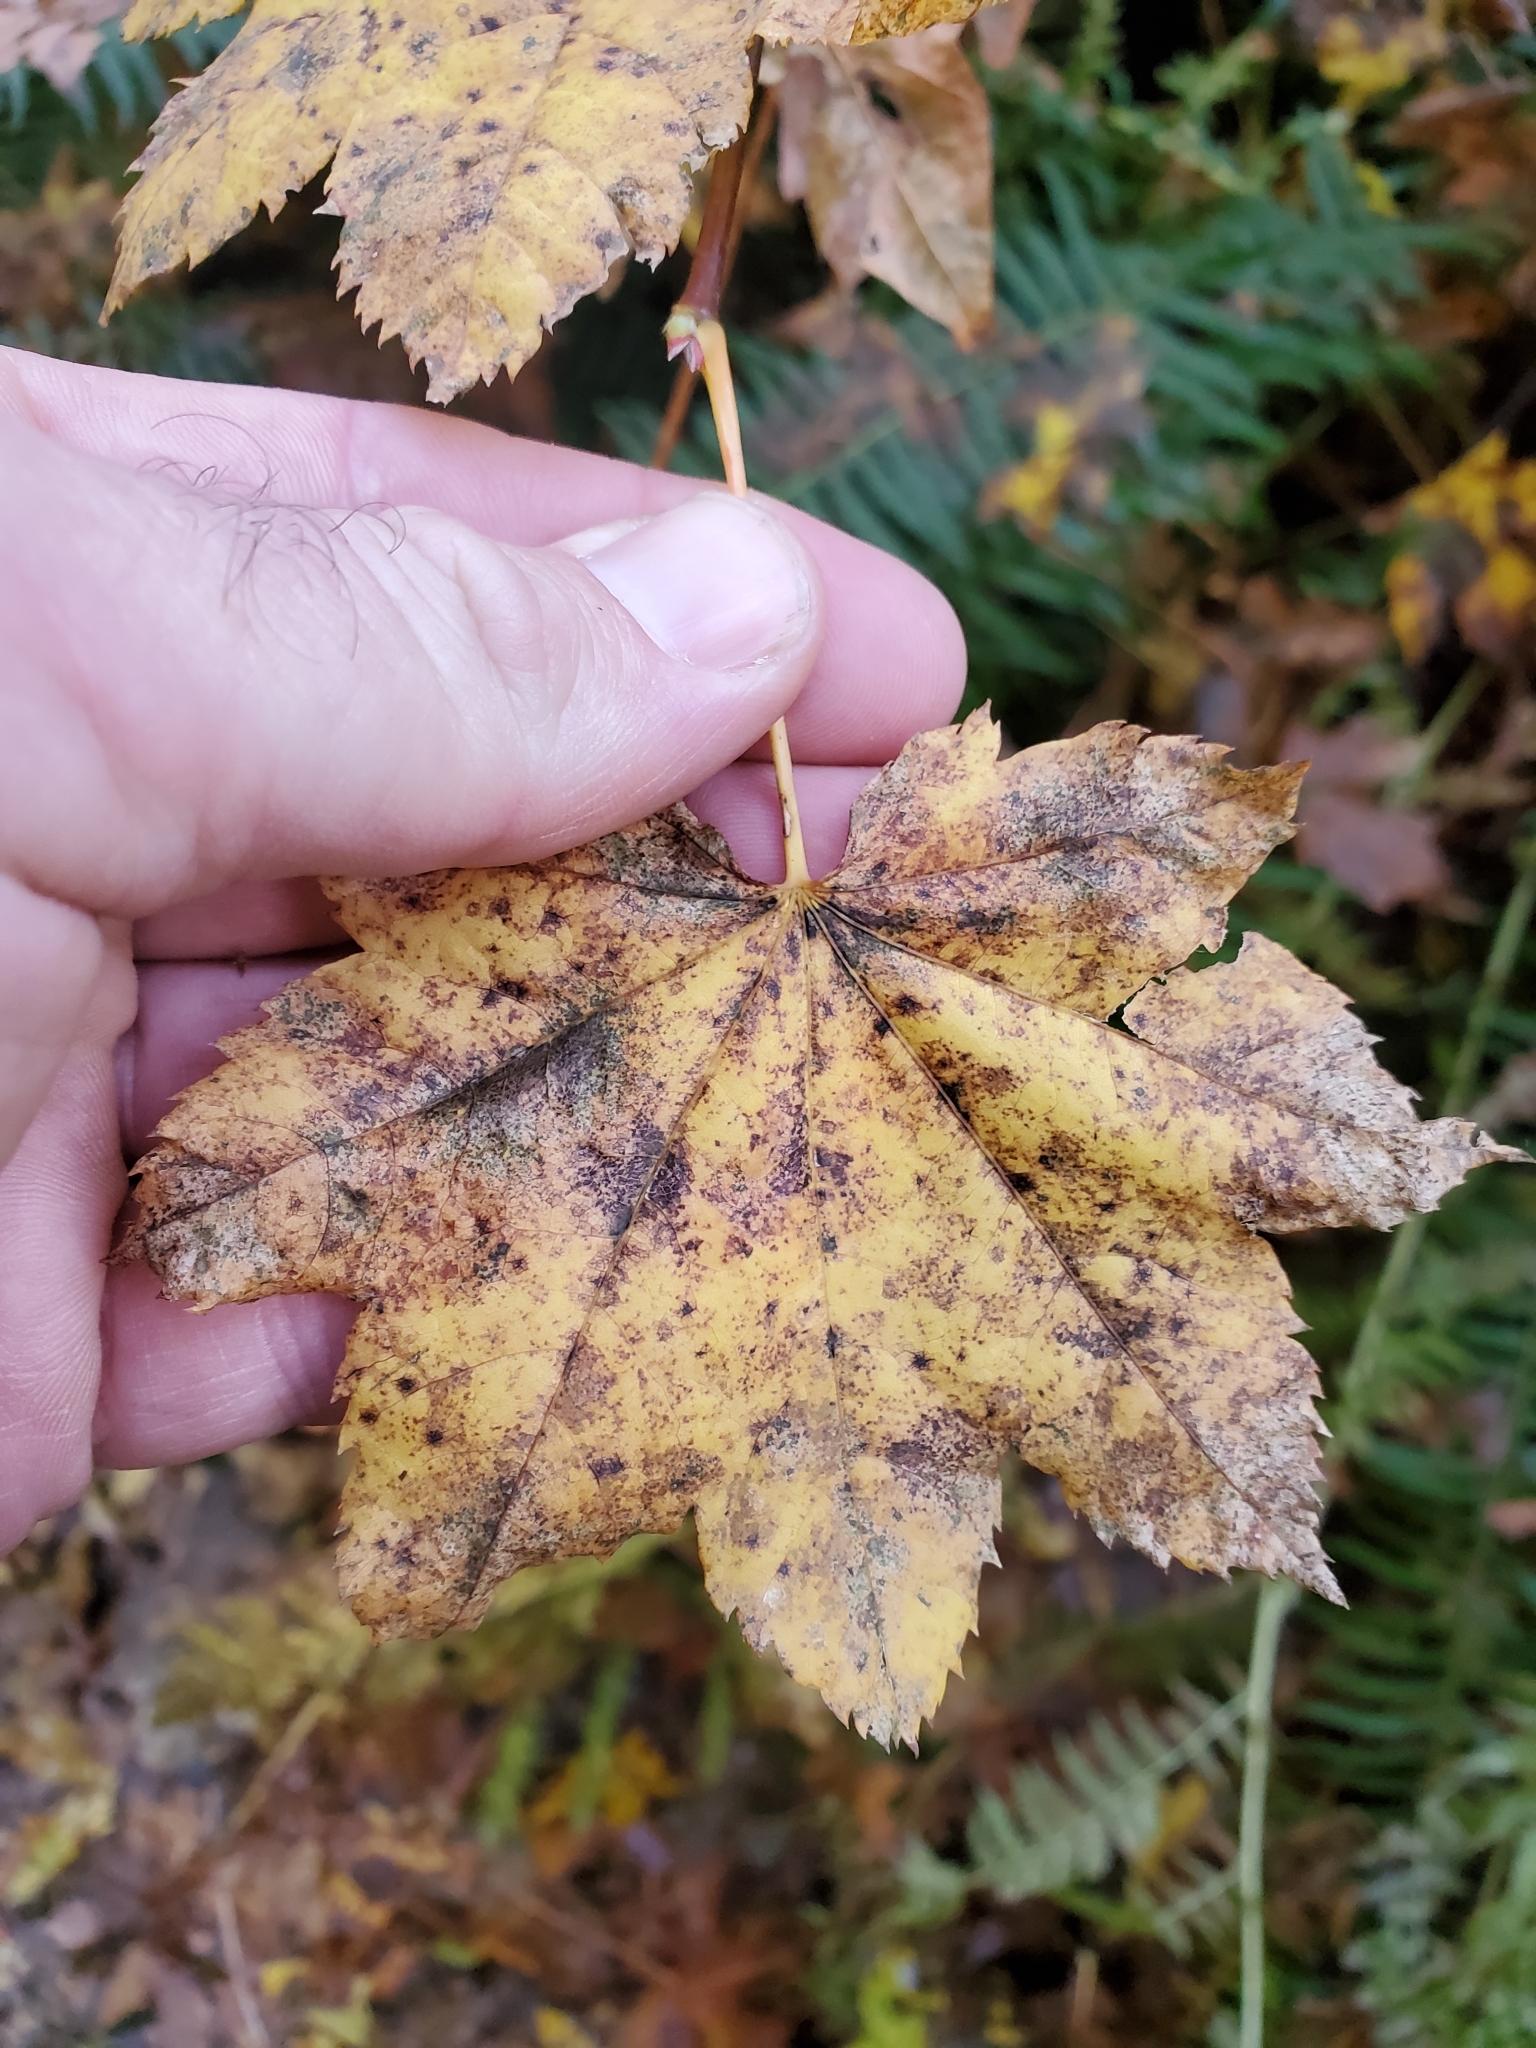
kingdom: Plantae
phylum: Tracheophyta
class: Magnoliopsida
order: Sapindales
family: Sapindaceae
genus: Acer
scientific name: Acer circinatum
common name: Vine maple
